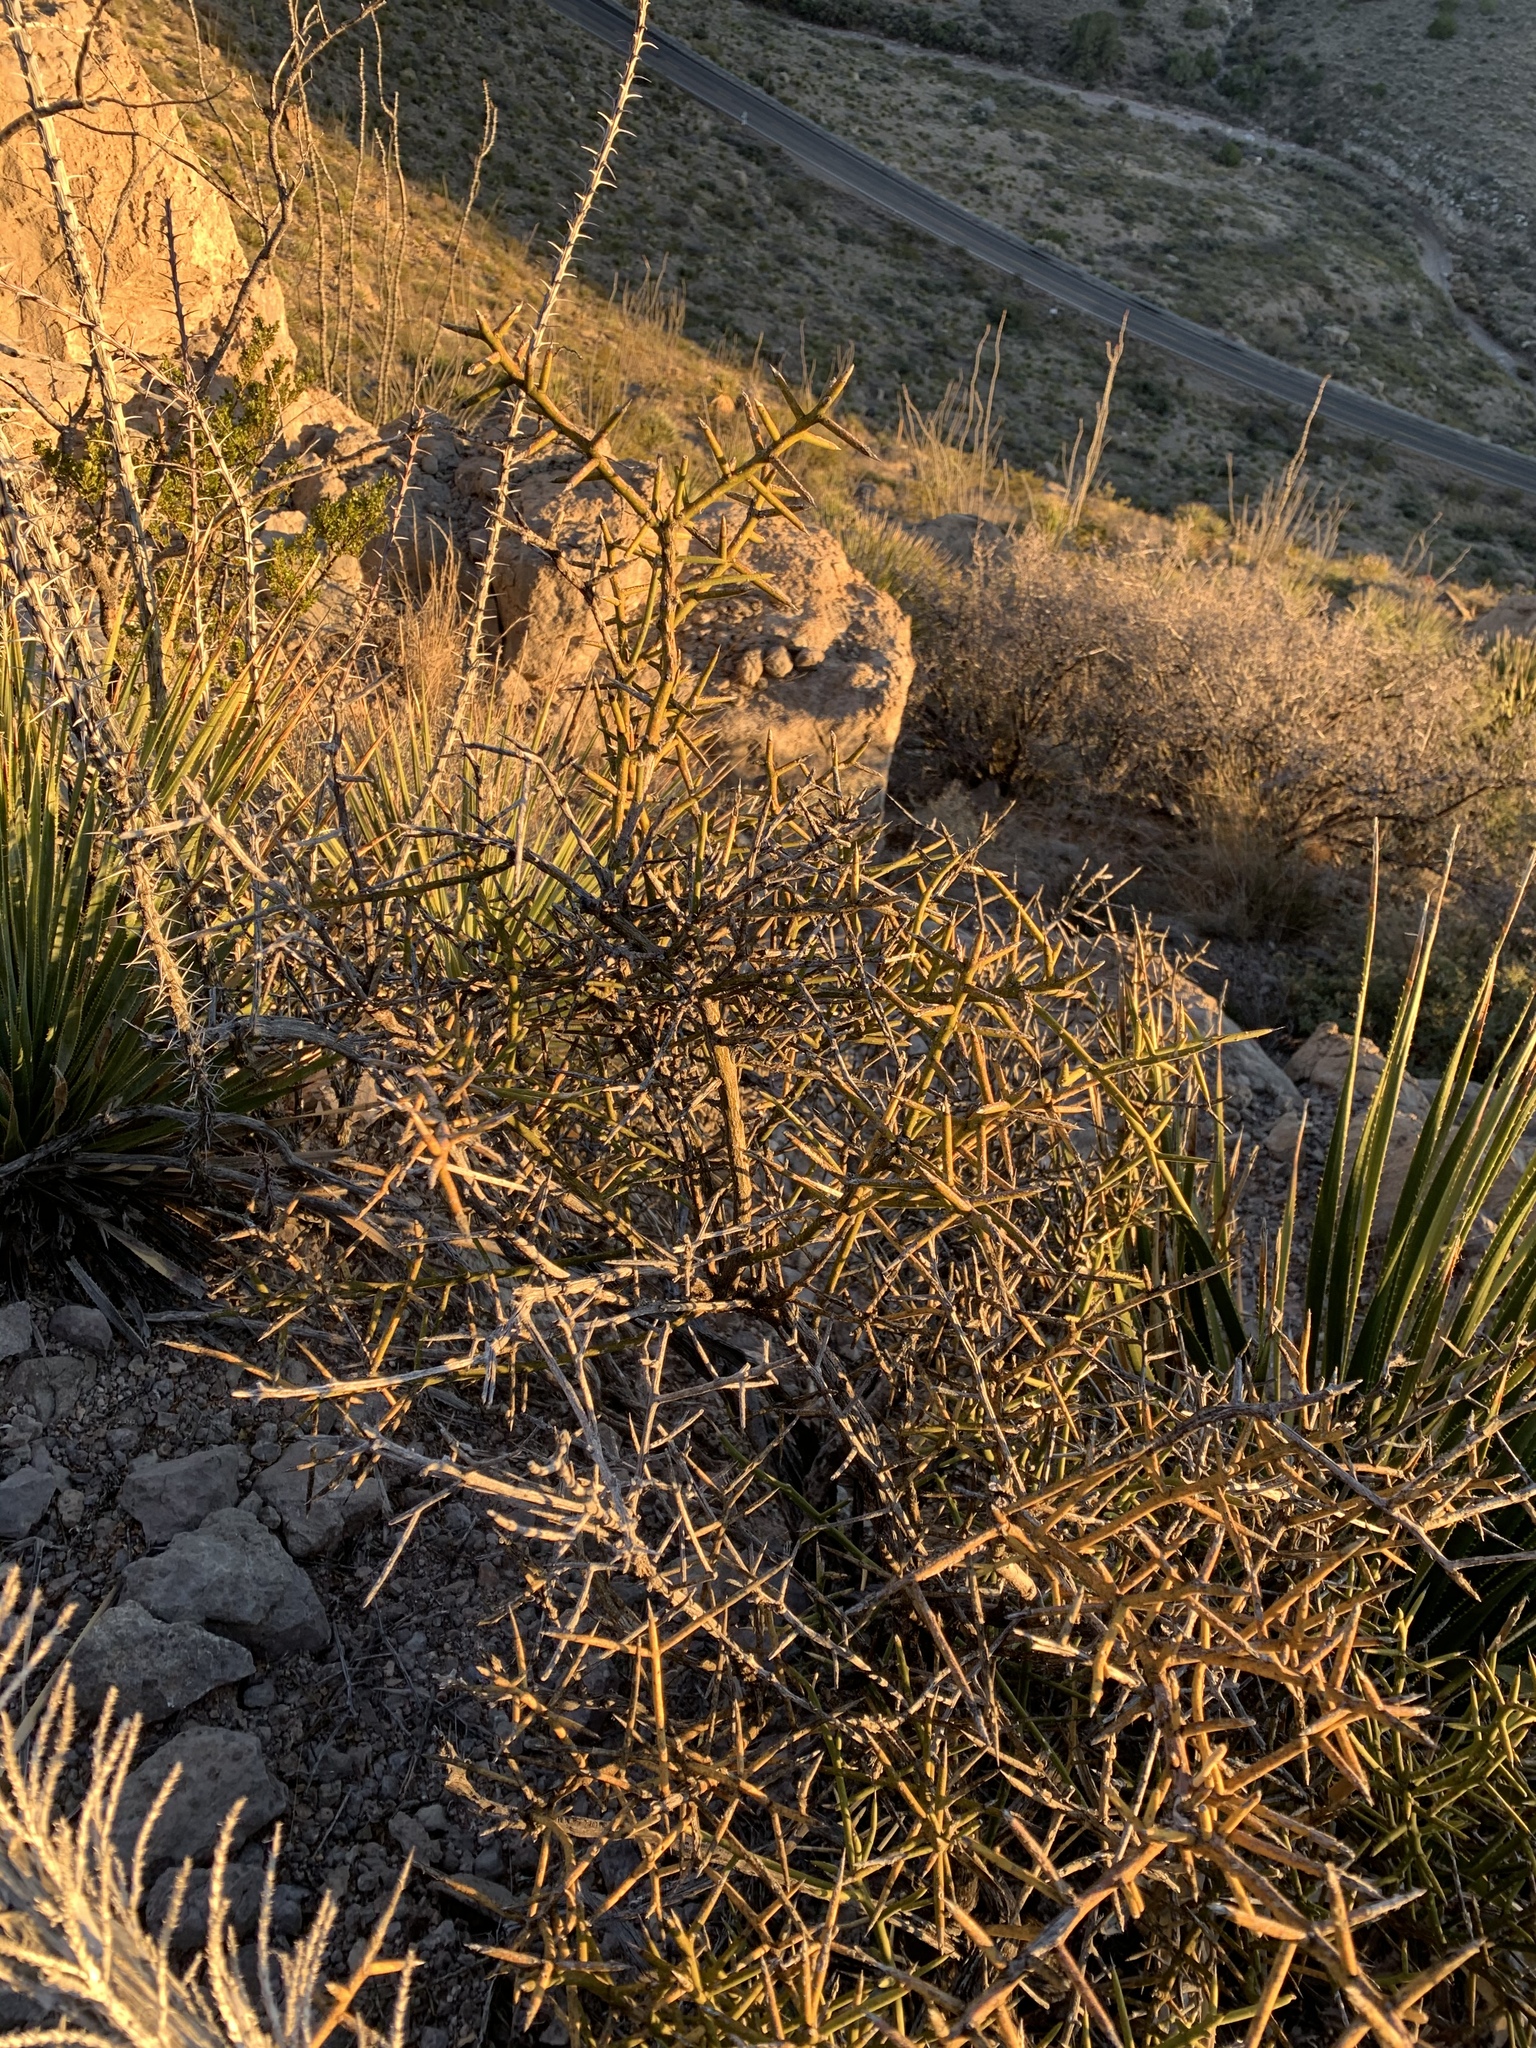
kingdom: Plantae
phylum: Tracheophyta
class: Magnoliopsida
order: Brassicales
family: Koeberliniaceae
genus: Koeberlinia
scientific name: Koeberlinia spinosa
